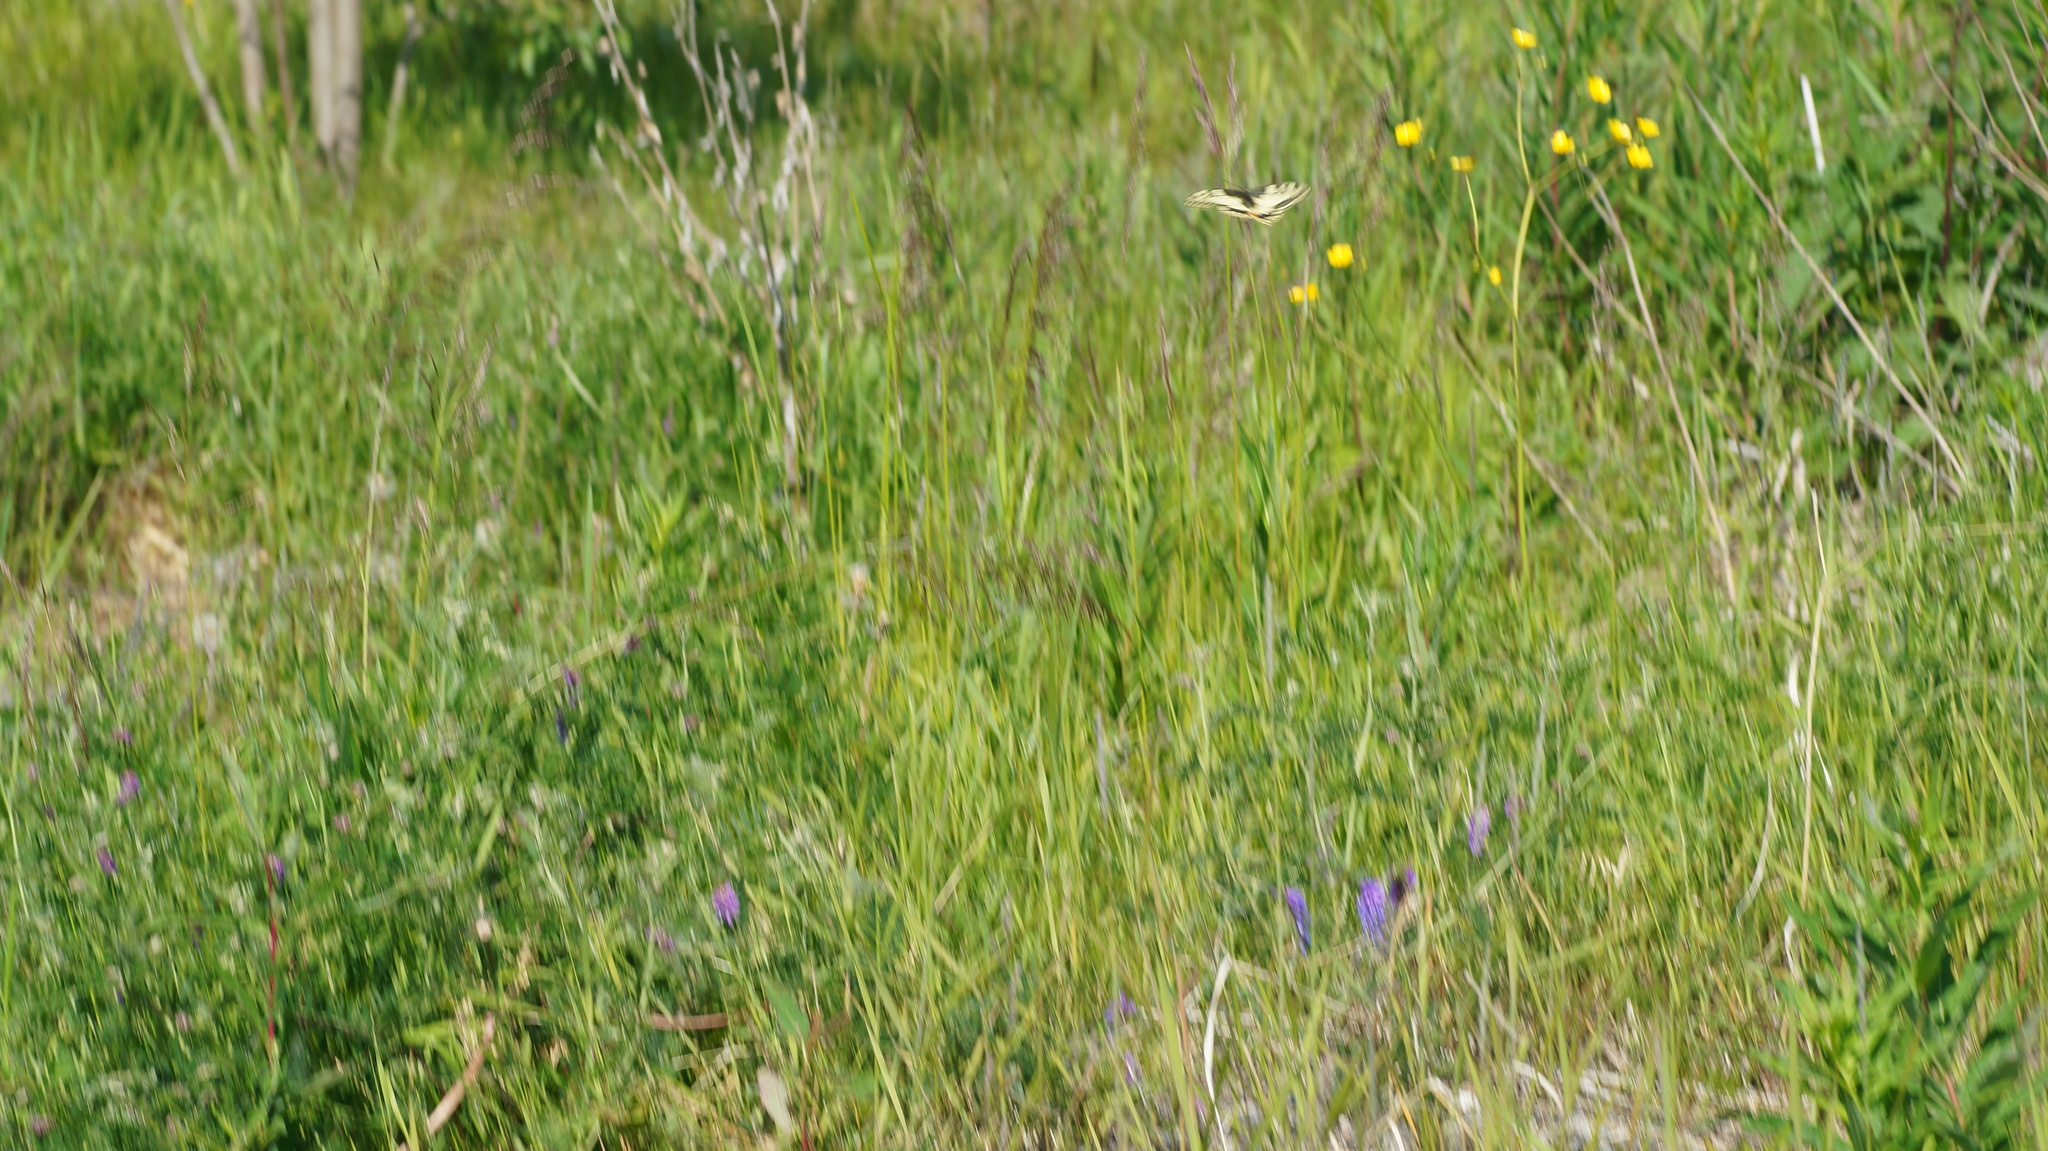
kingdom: Animalia
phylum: Arthropoda
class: Insecta
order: Lepidoptera
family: Papilionidae
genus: Papilio
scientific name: Papilio machaon
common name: Swallowtail
